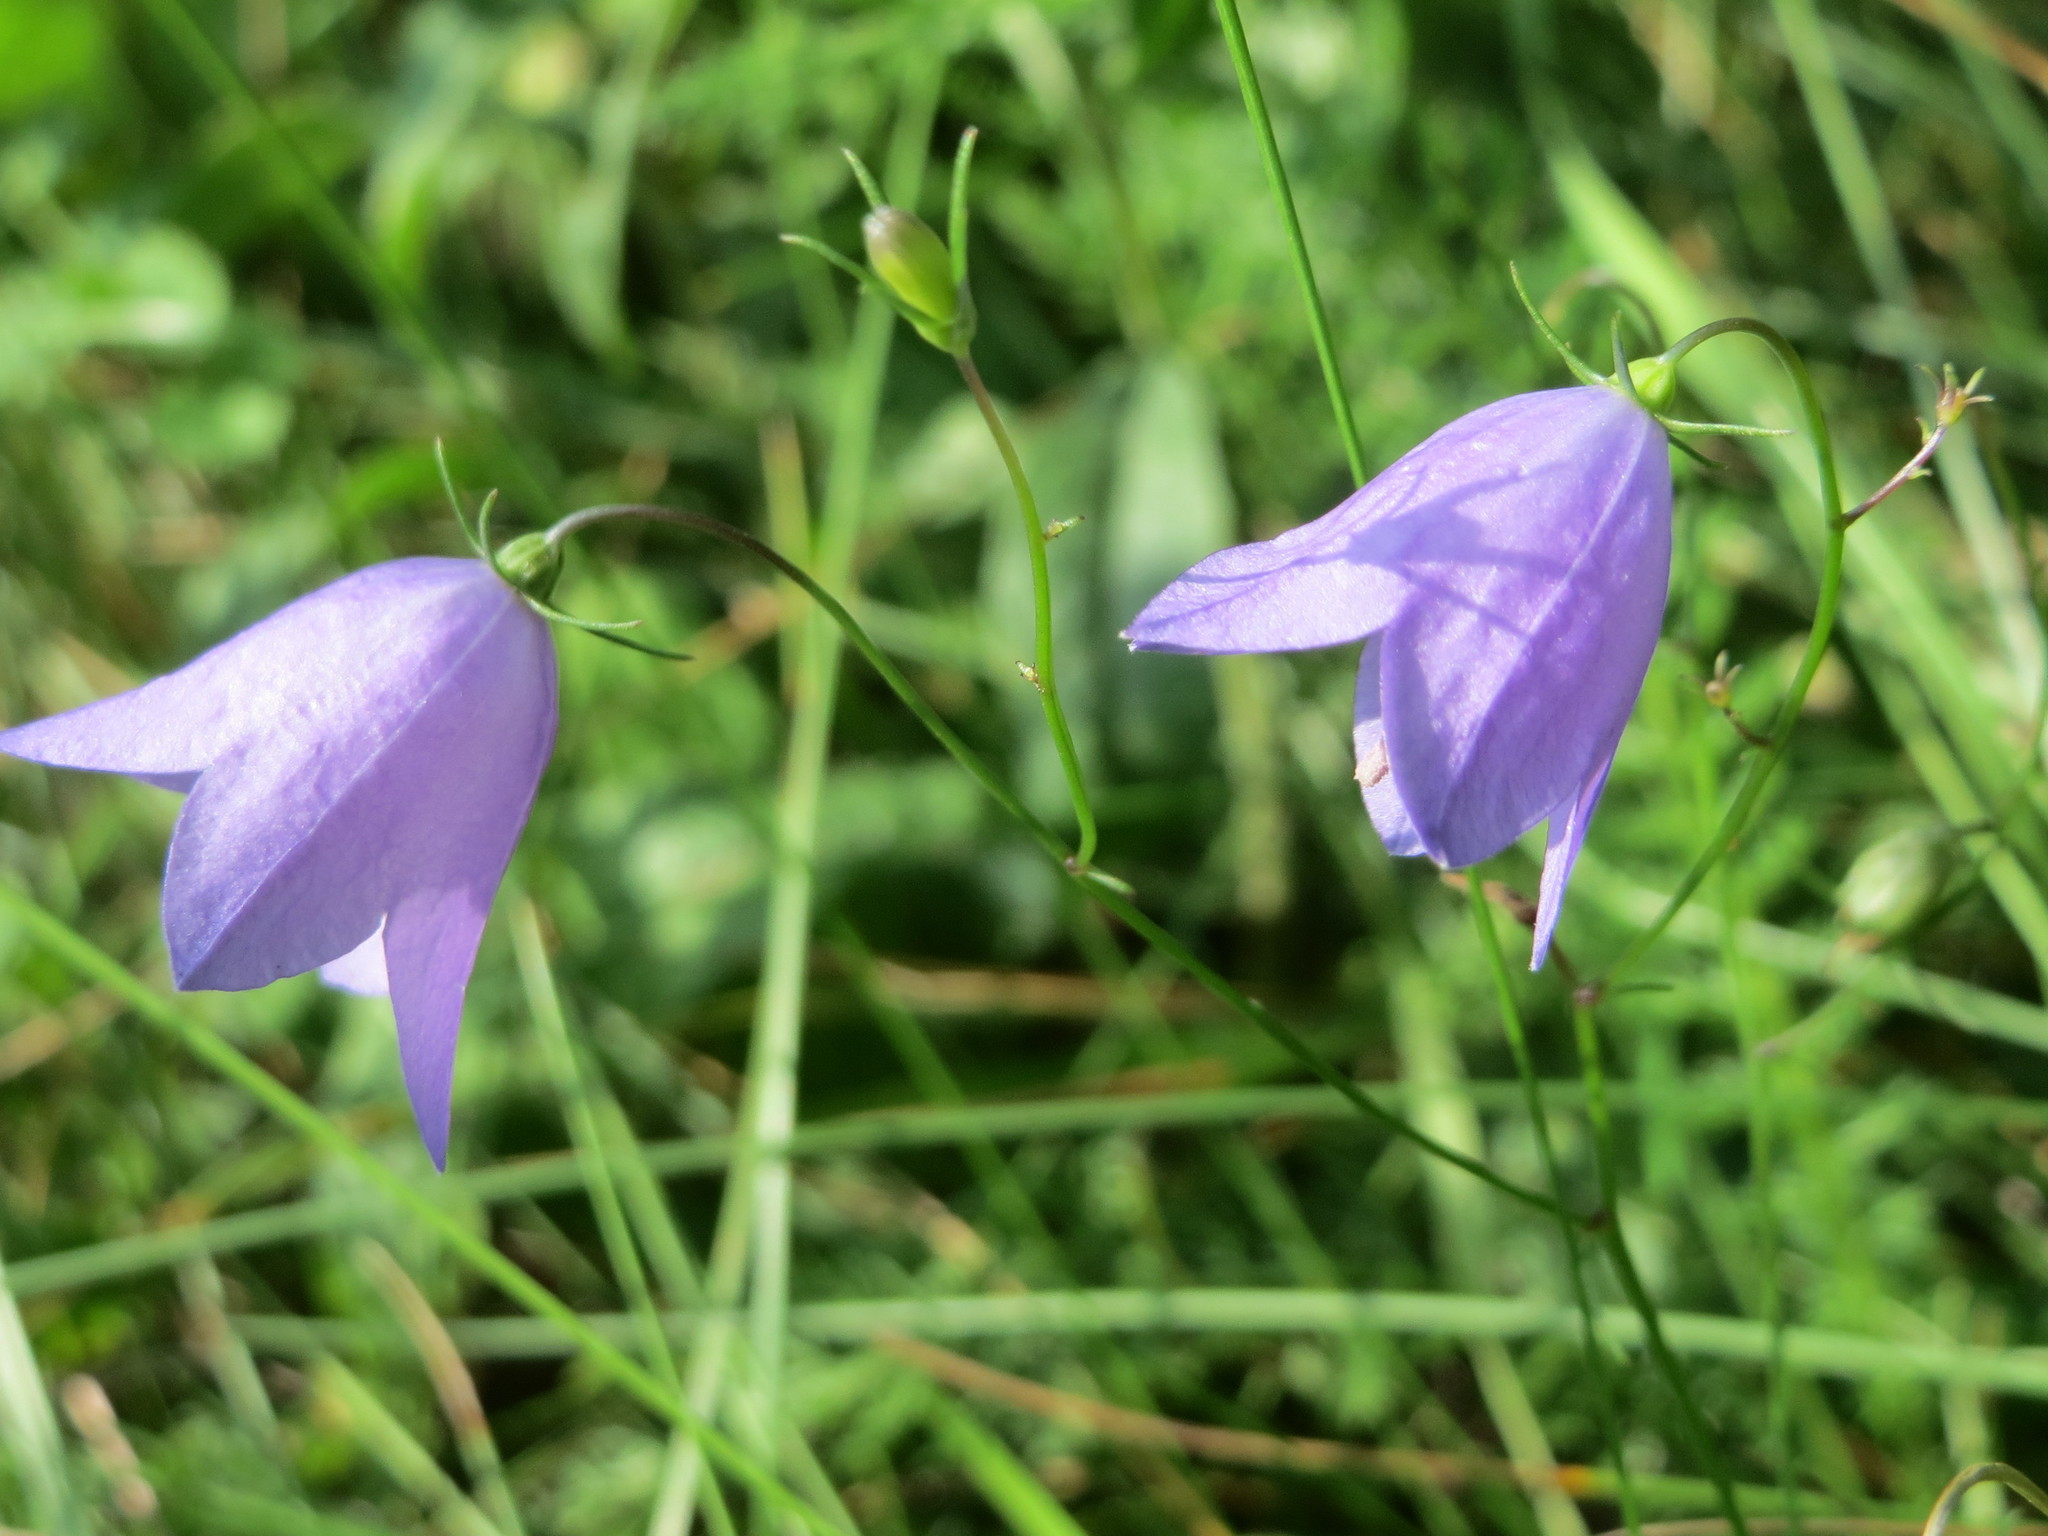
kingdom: Plantae
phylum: Tracheophyta
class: Magnoliopsida
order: Asterales
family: Campanulaceae
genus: Campanula
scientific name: Campanula rotundifolia
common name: Harebell
